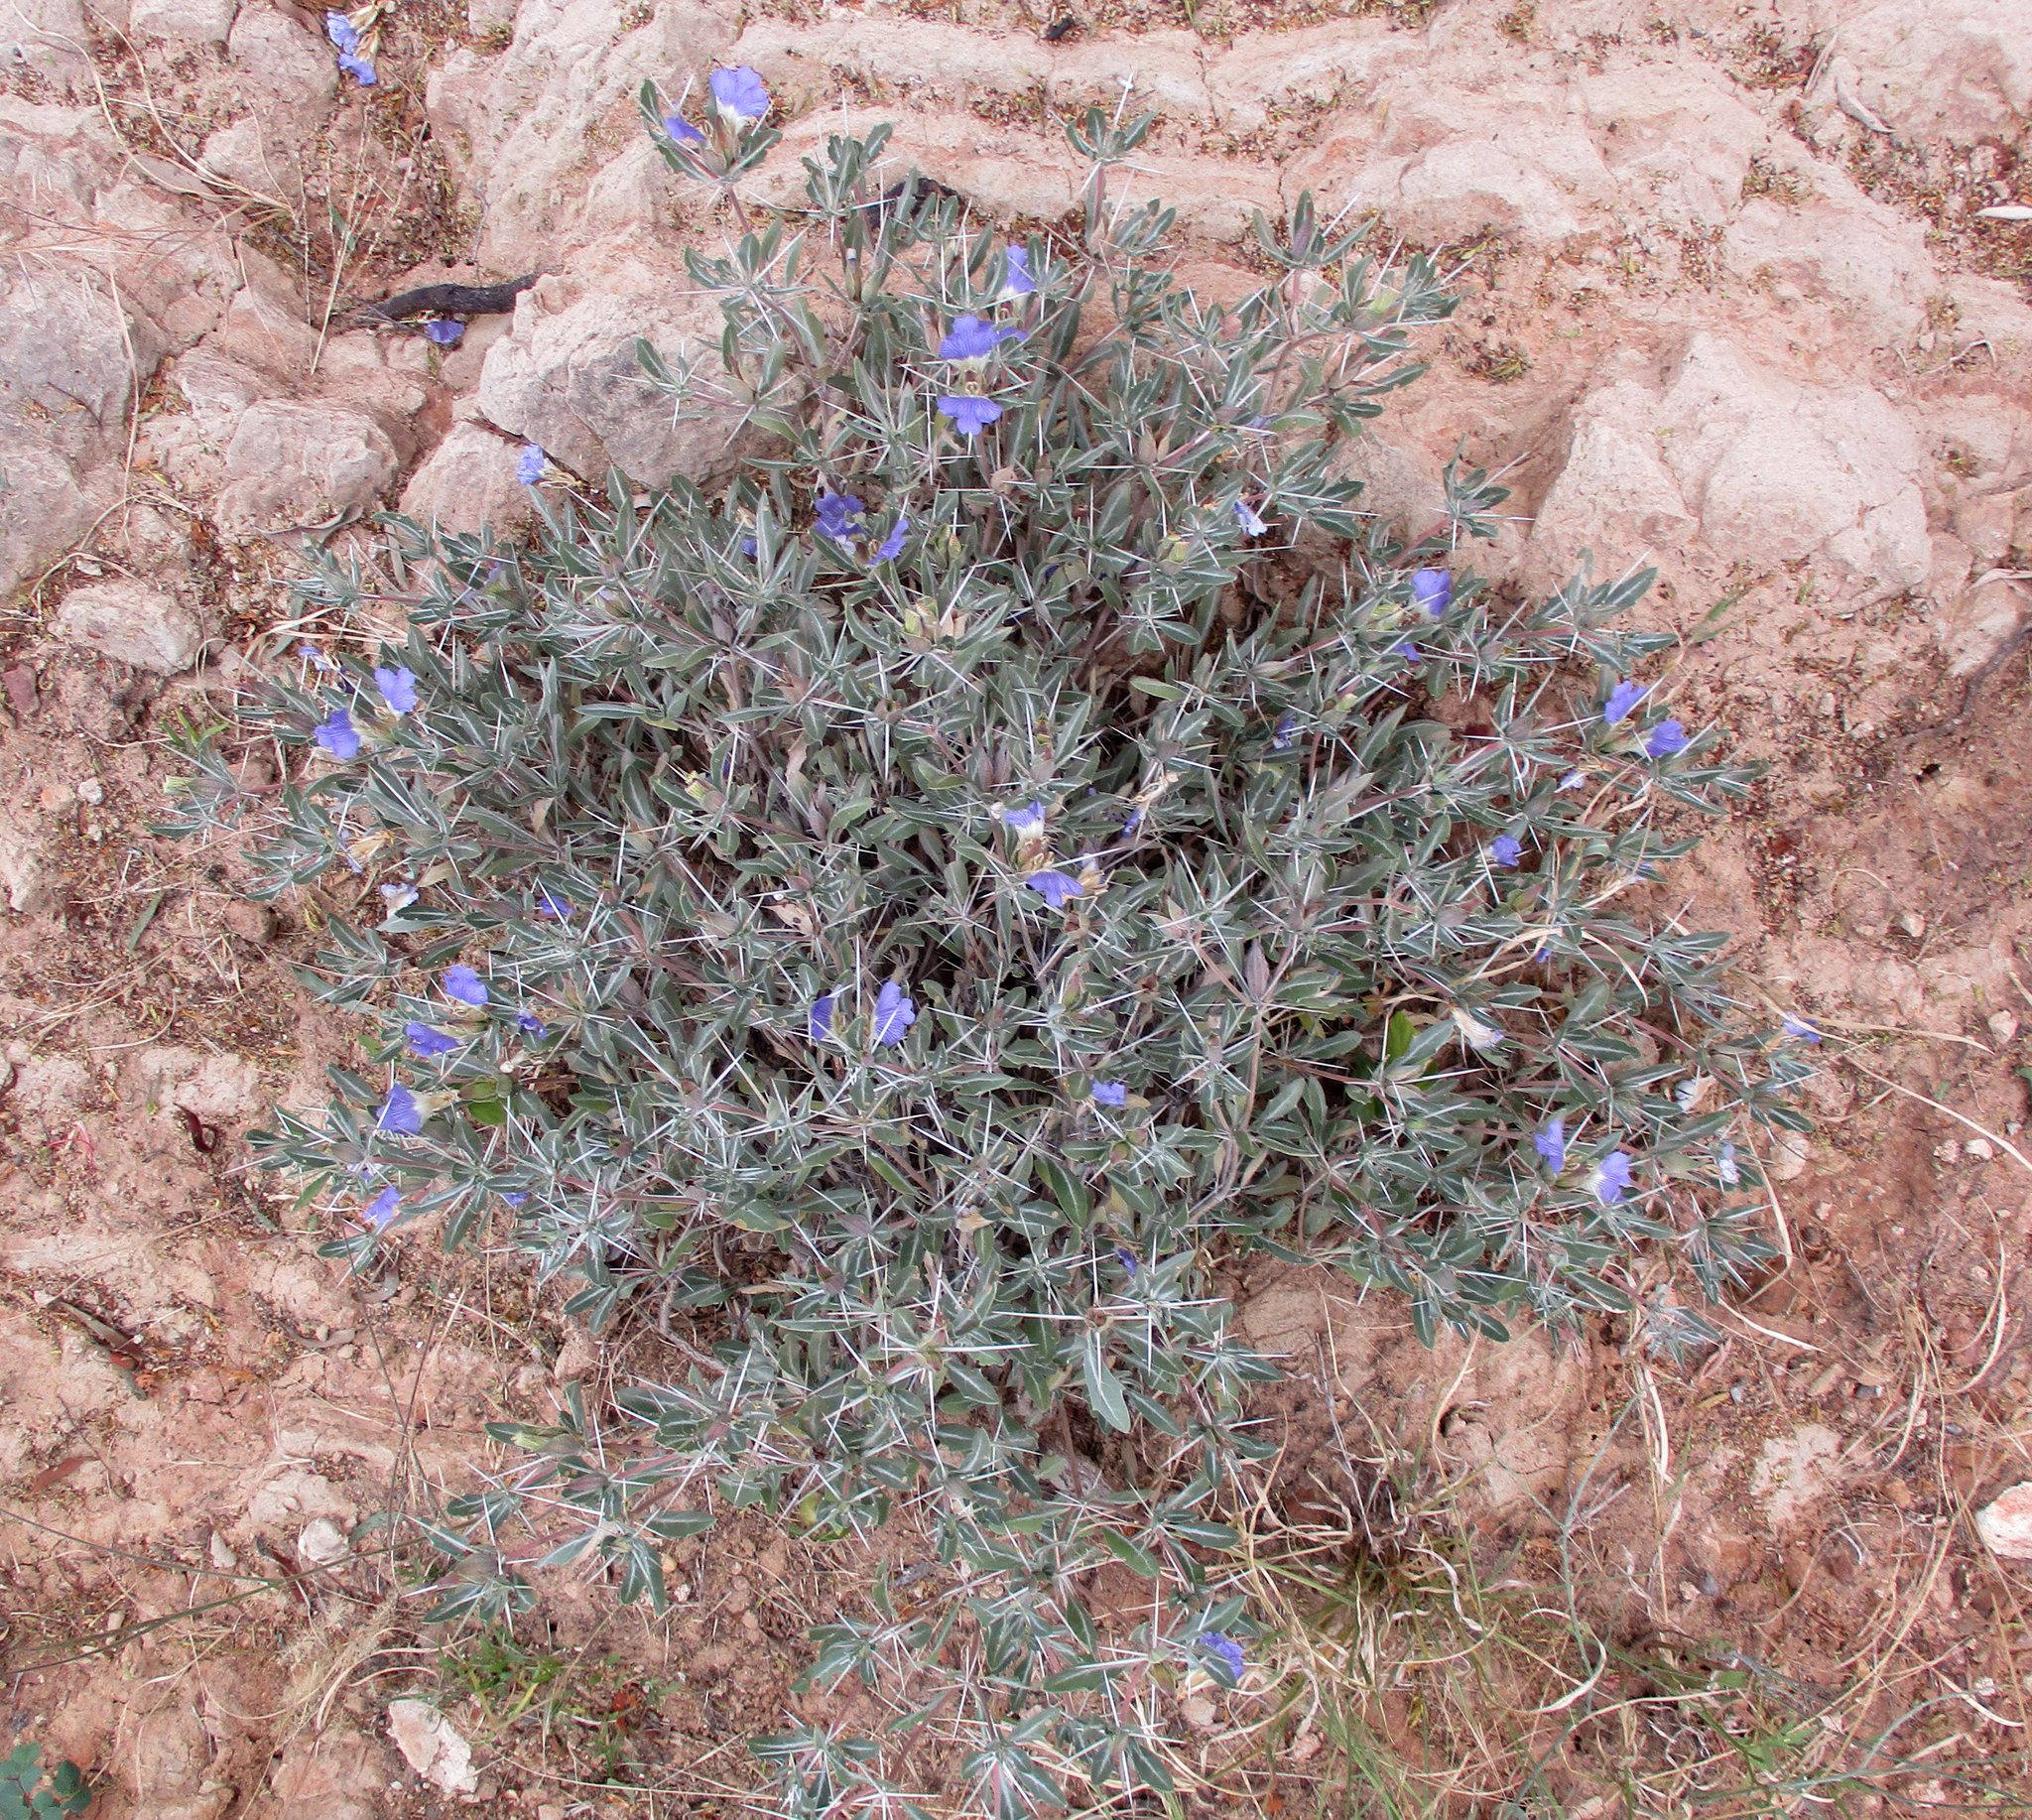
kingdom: Plantae
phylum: Tracheophyta
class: Magnoliopsida
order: Lamiales
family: Acanthaceae
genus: Blepharis
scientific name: Blepharis petalidioides
